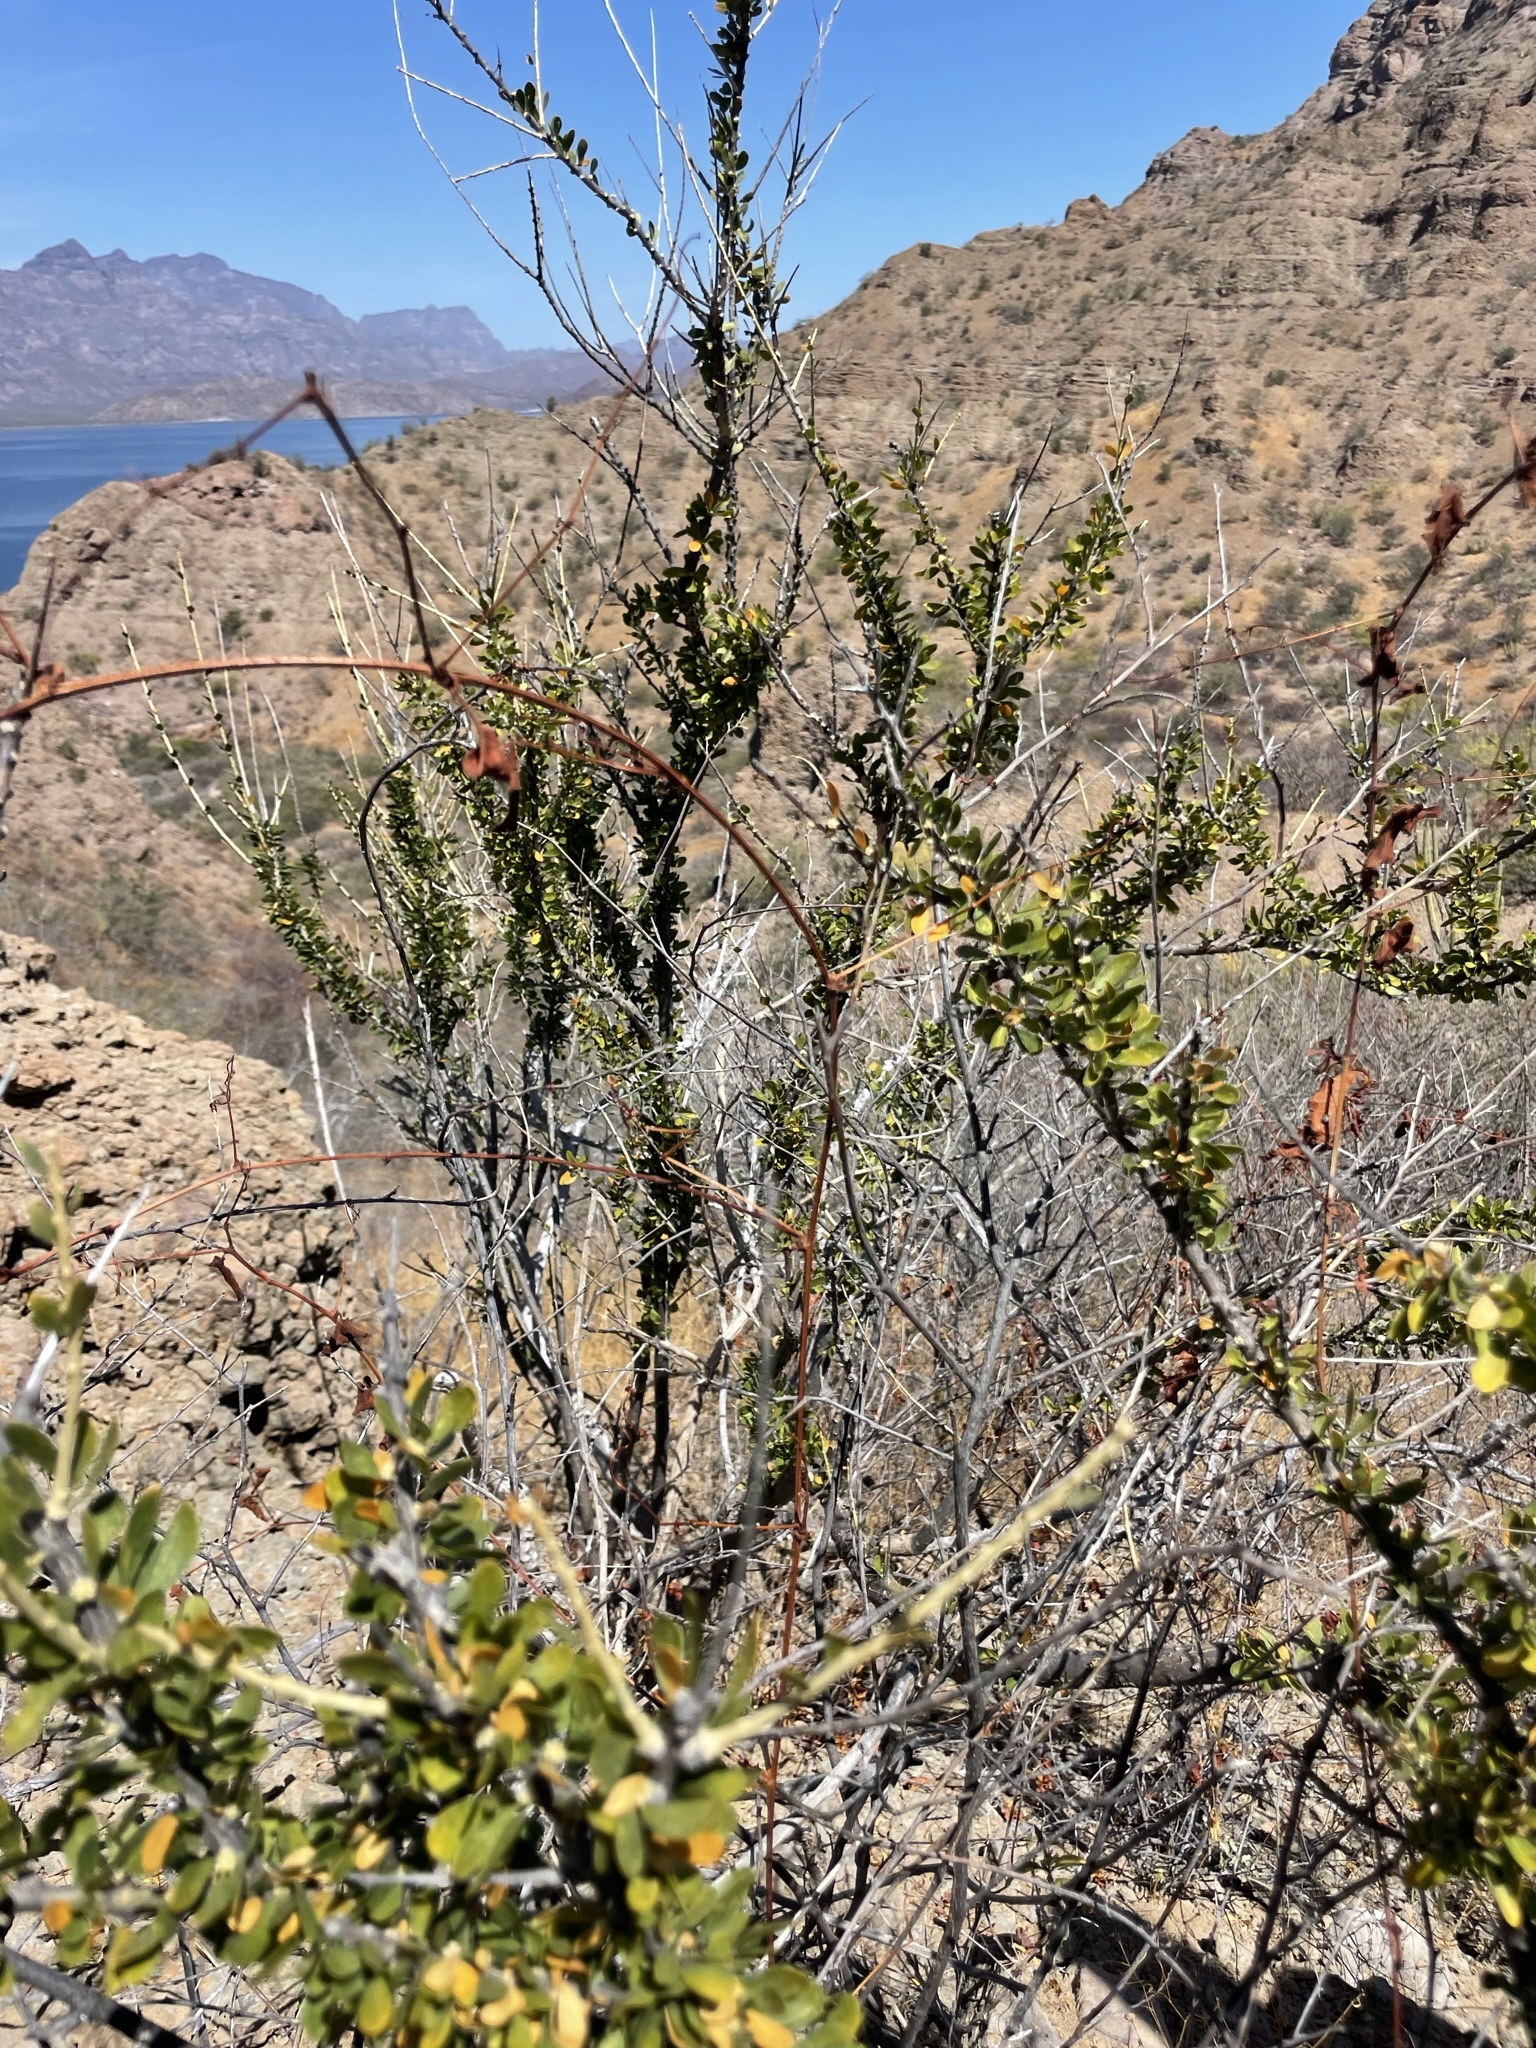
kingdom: Plantae
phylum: Tracheophyta
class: Magnoliopsida
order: Malpighiales
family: Euphorbiaceae
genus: Adelia
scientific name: Adelia brandegeei
